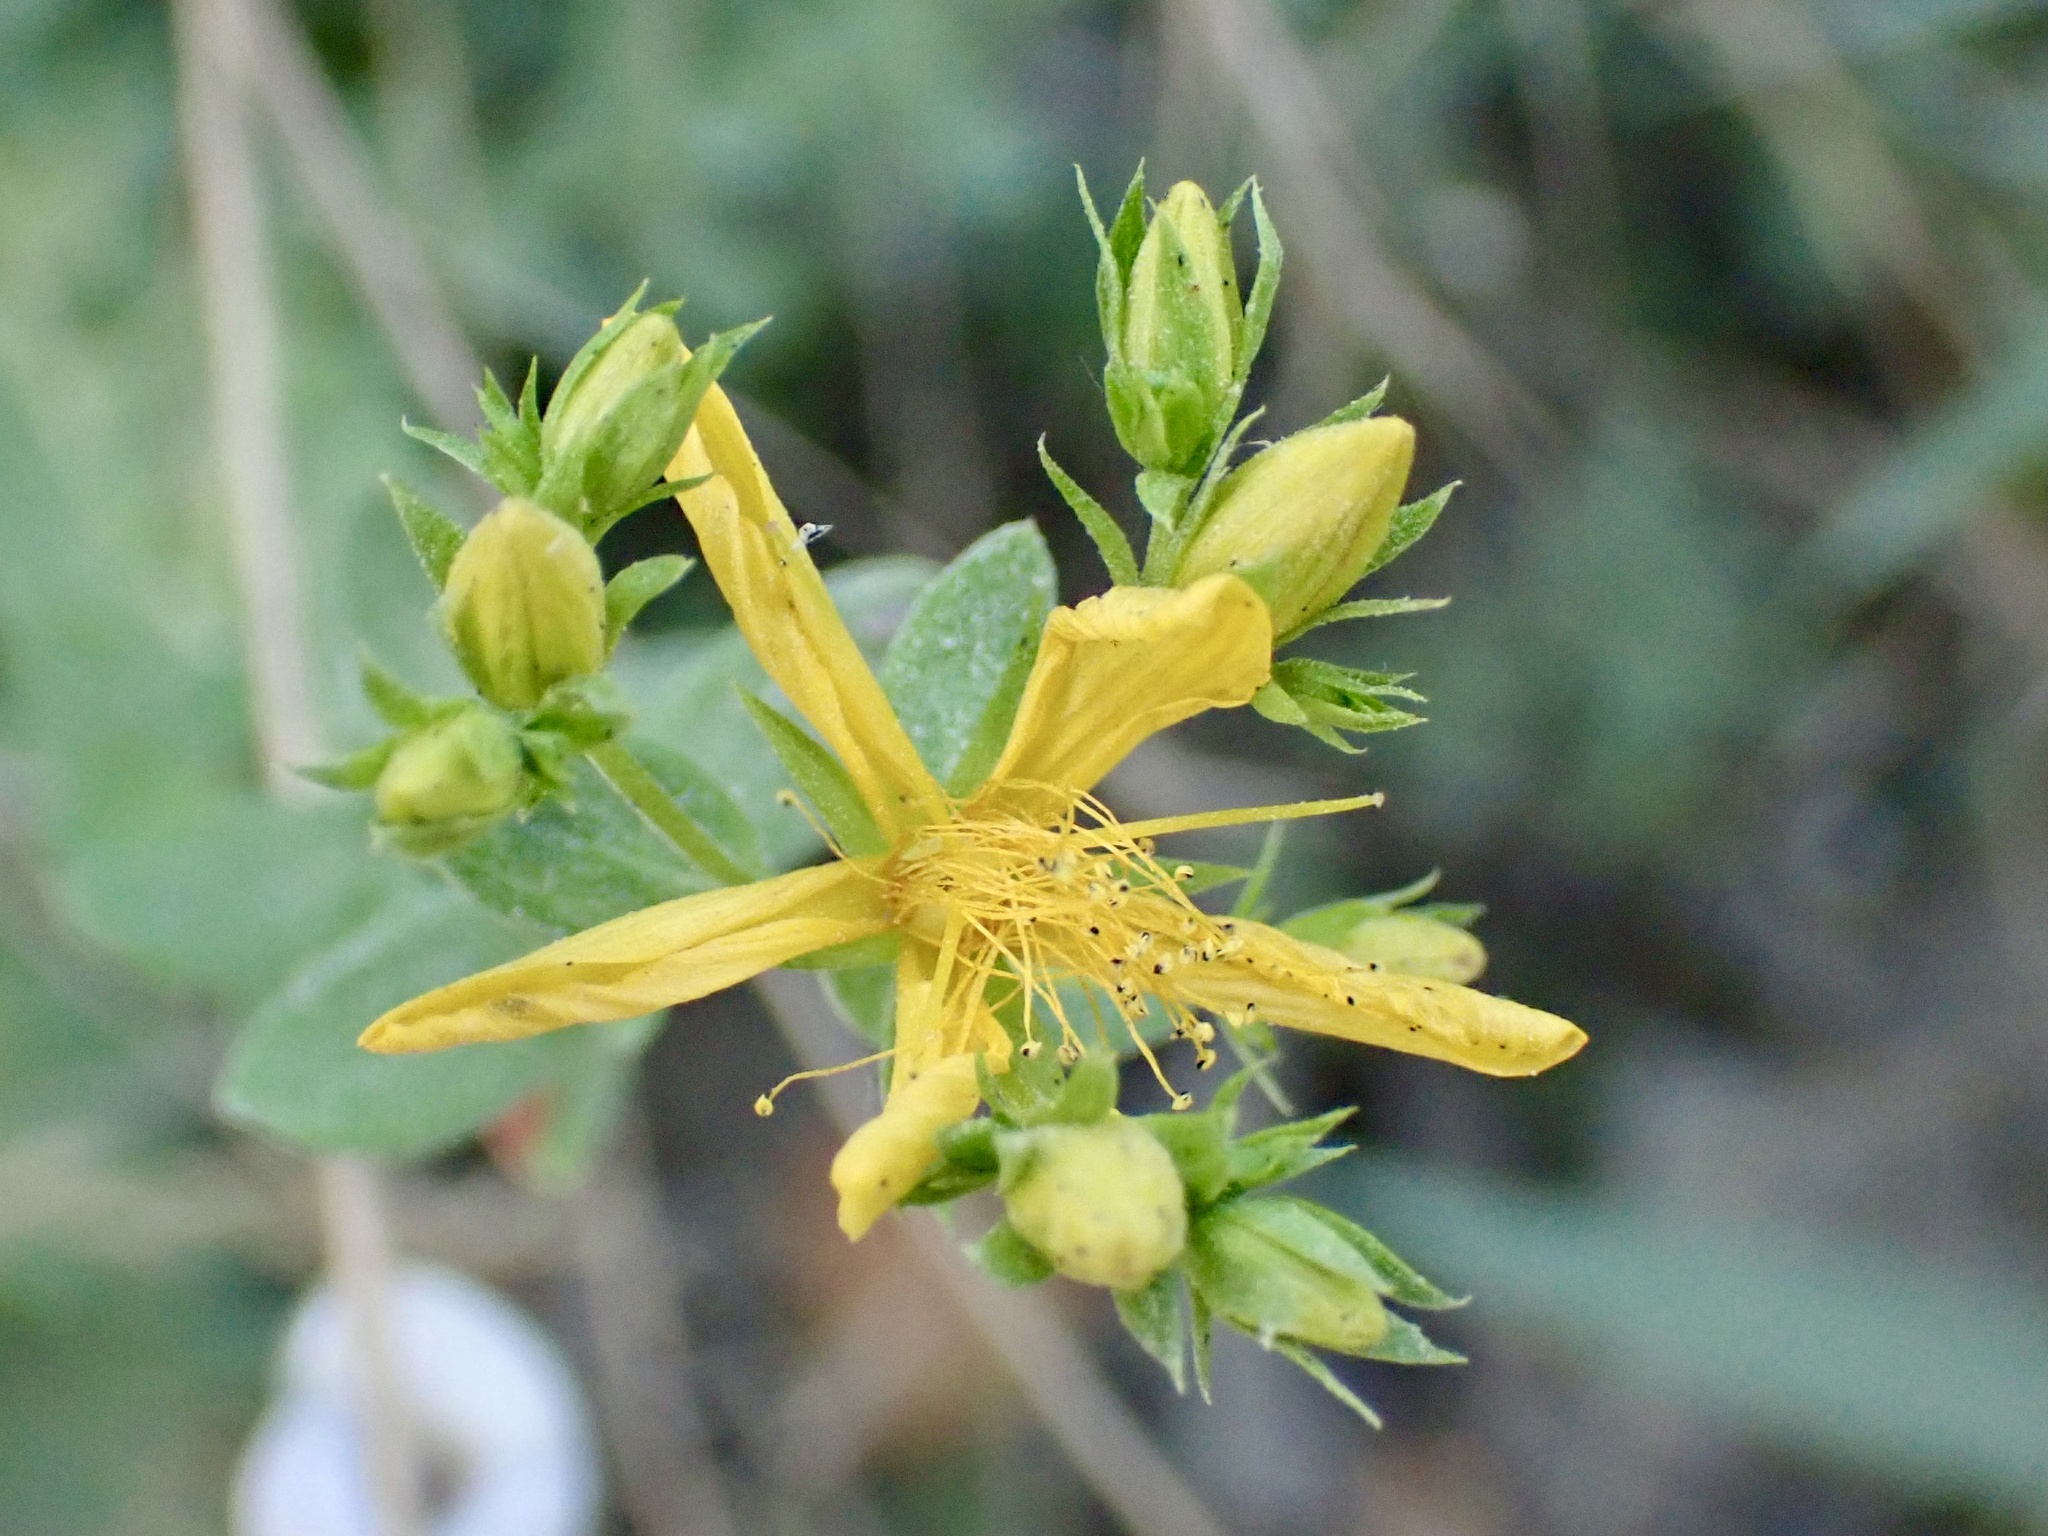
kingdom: Plantae
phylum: Tracheophyta
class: Magnoliopsida
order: Malpighiales
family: Hypericaceae
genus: Hypericum
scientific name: Hypericum perforatum
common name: Common st. johnswort
